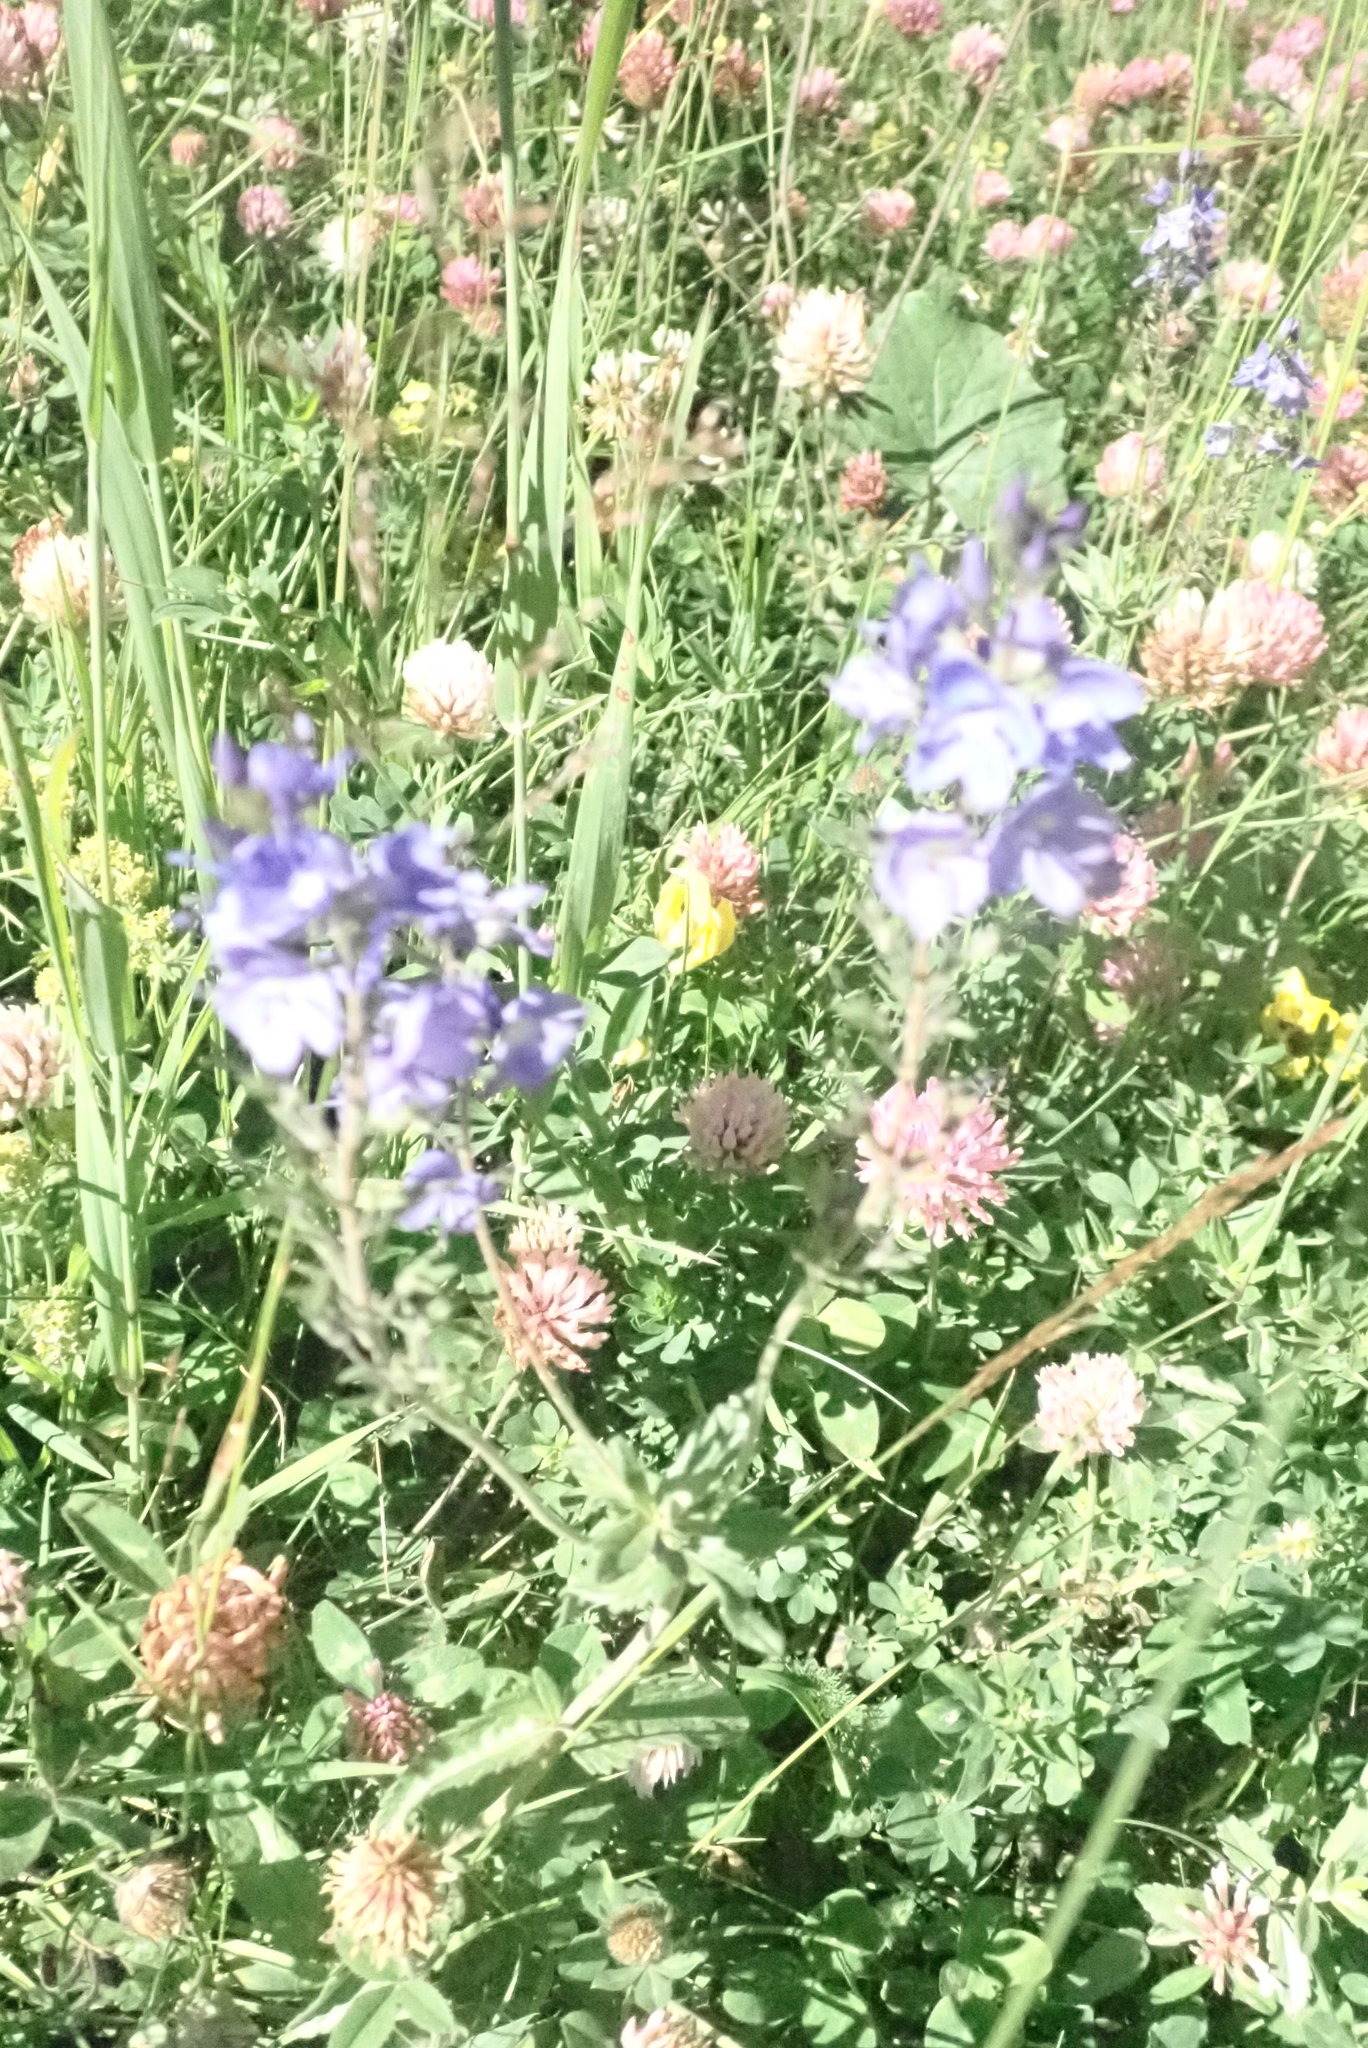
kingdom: Plantae
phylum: Tracheophyta
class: Magnoliopsida
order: Lamiales
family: Plantaginaceae
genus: Veronica
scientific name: Veronica teucrium
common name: Large speedwell
